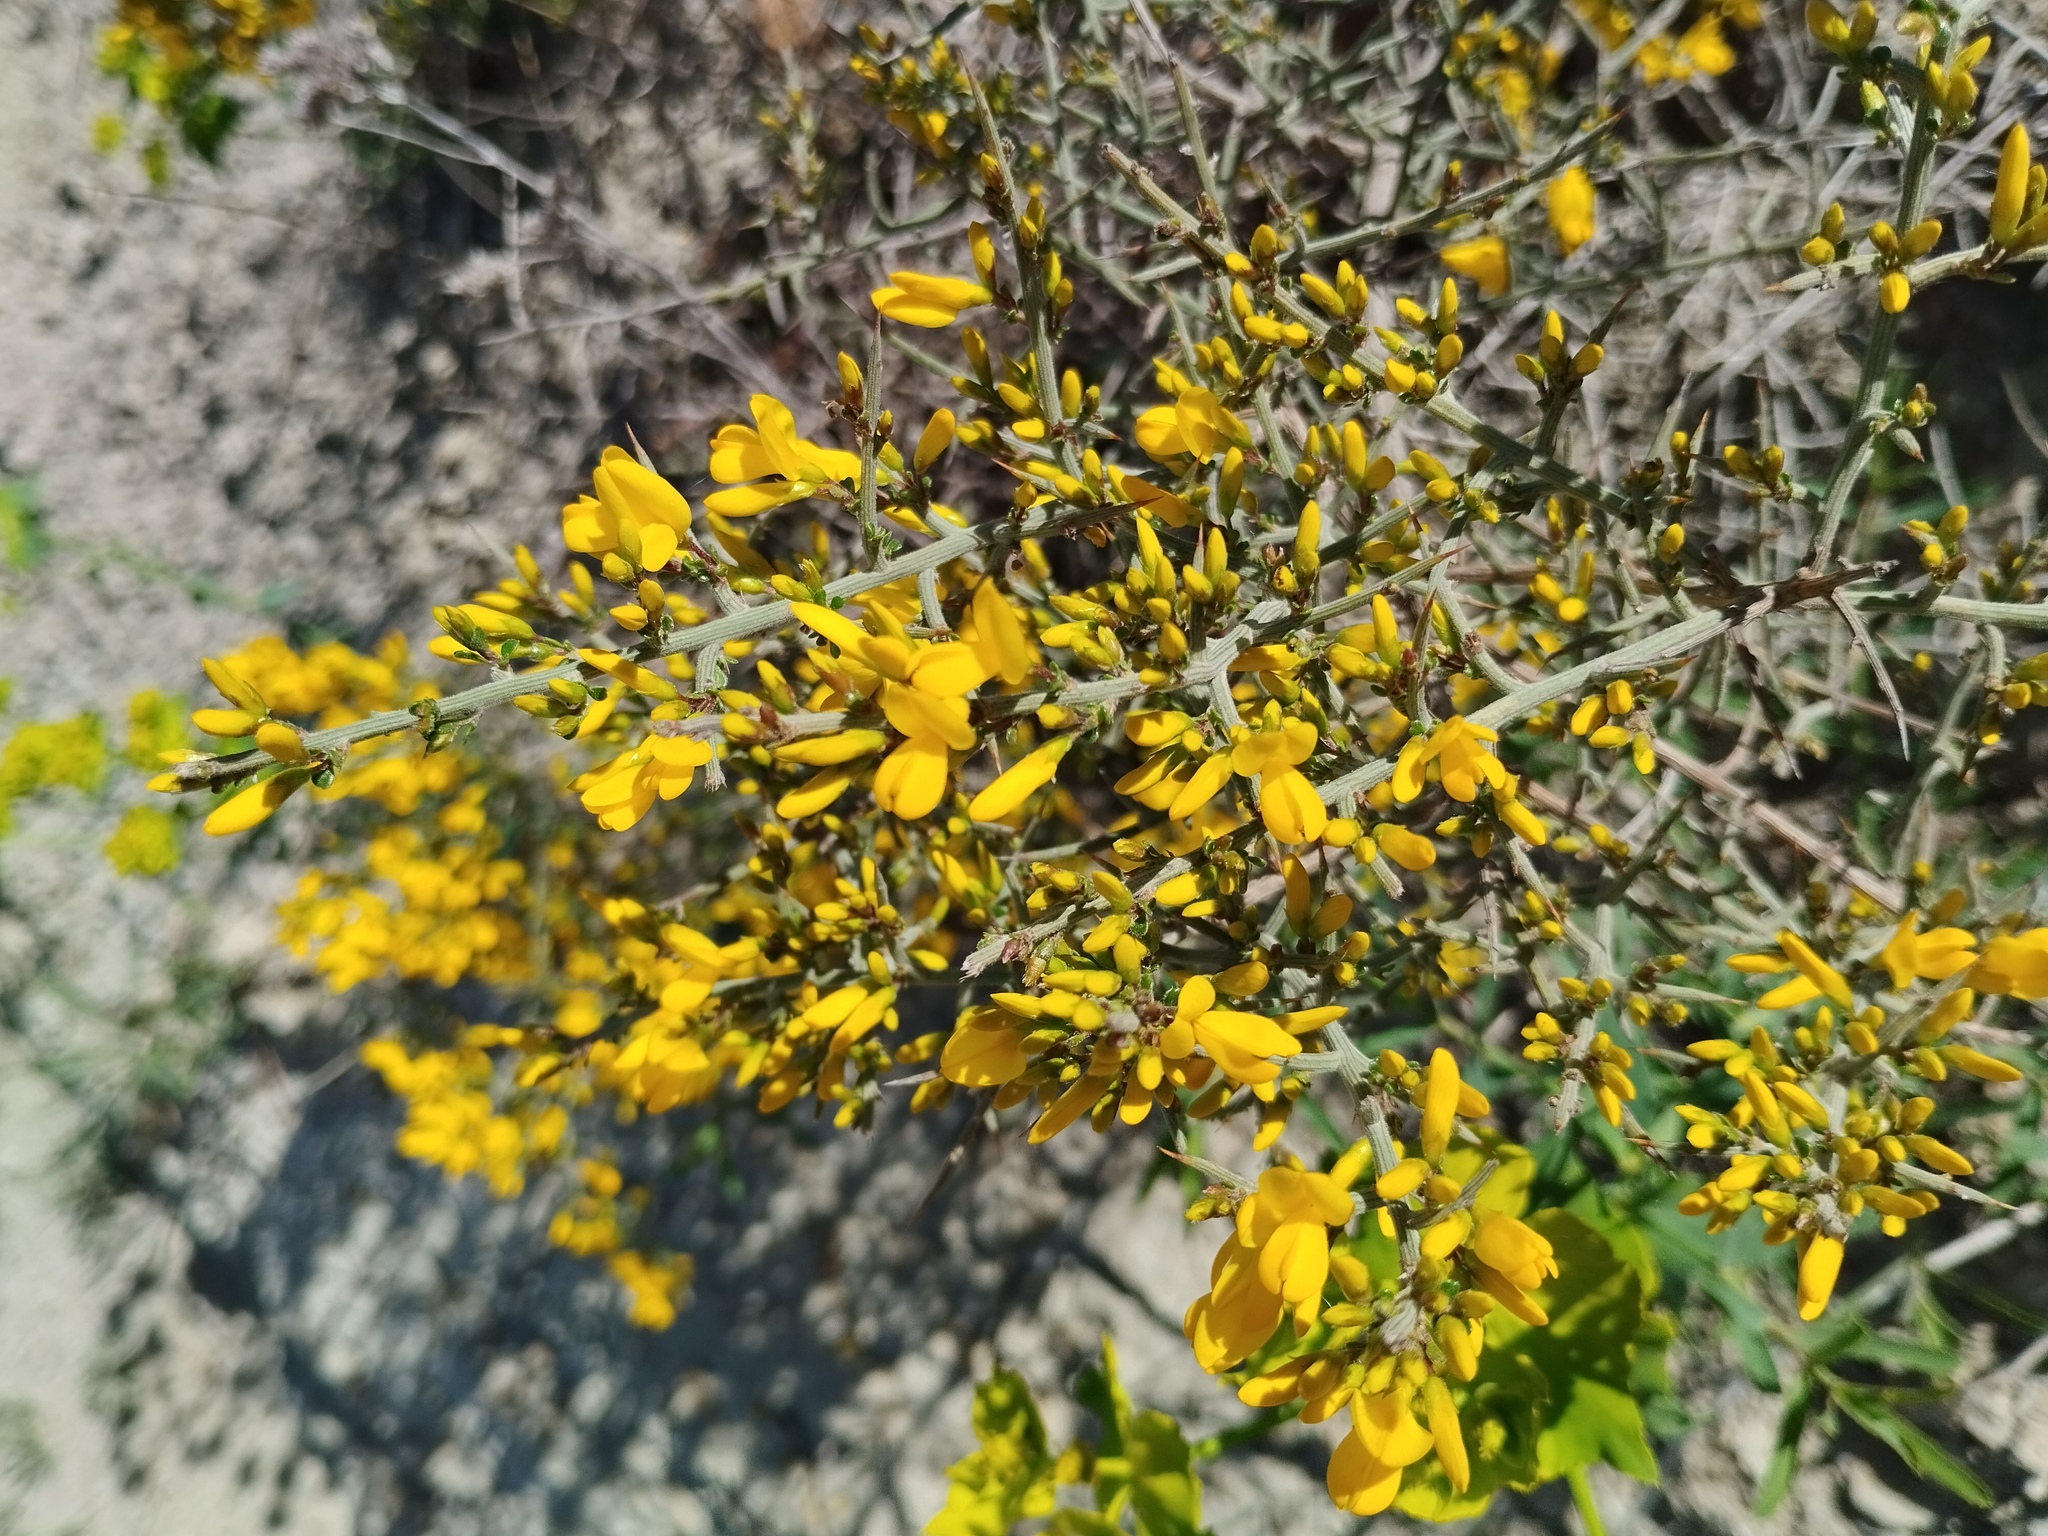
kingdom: Plantae
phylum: Tracheophyta
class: Magnoliopsida
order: Fabales
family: Fabaceae
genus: Genista
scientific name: Genista scorpius
